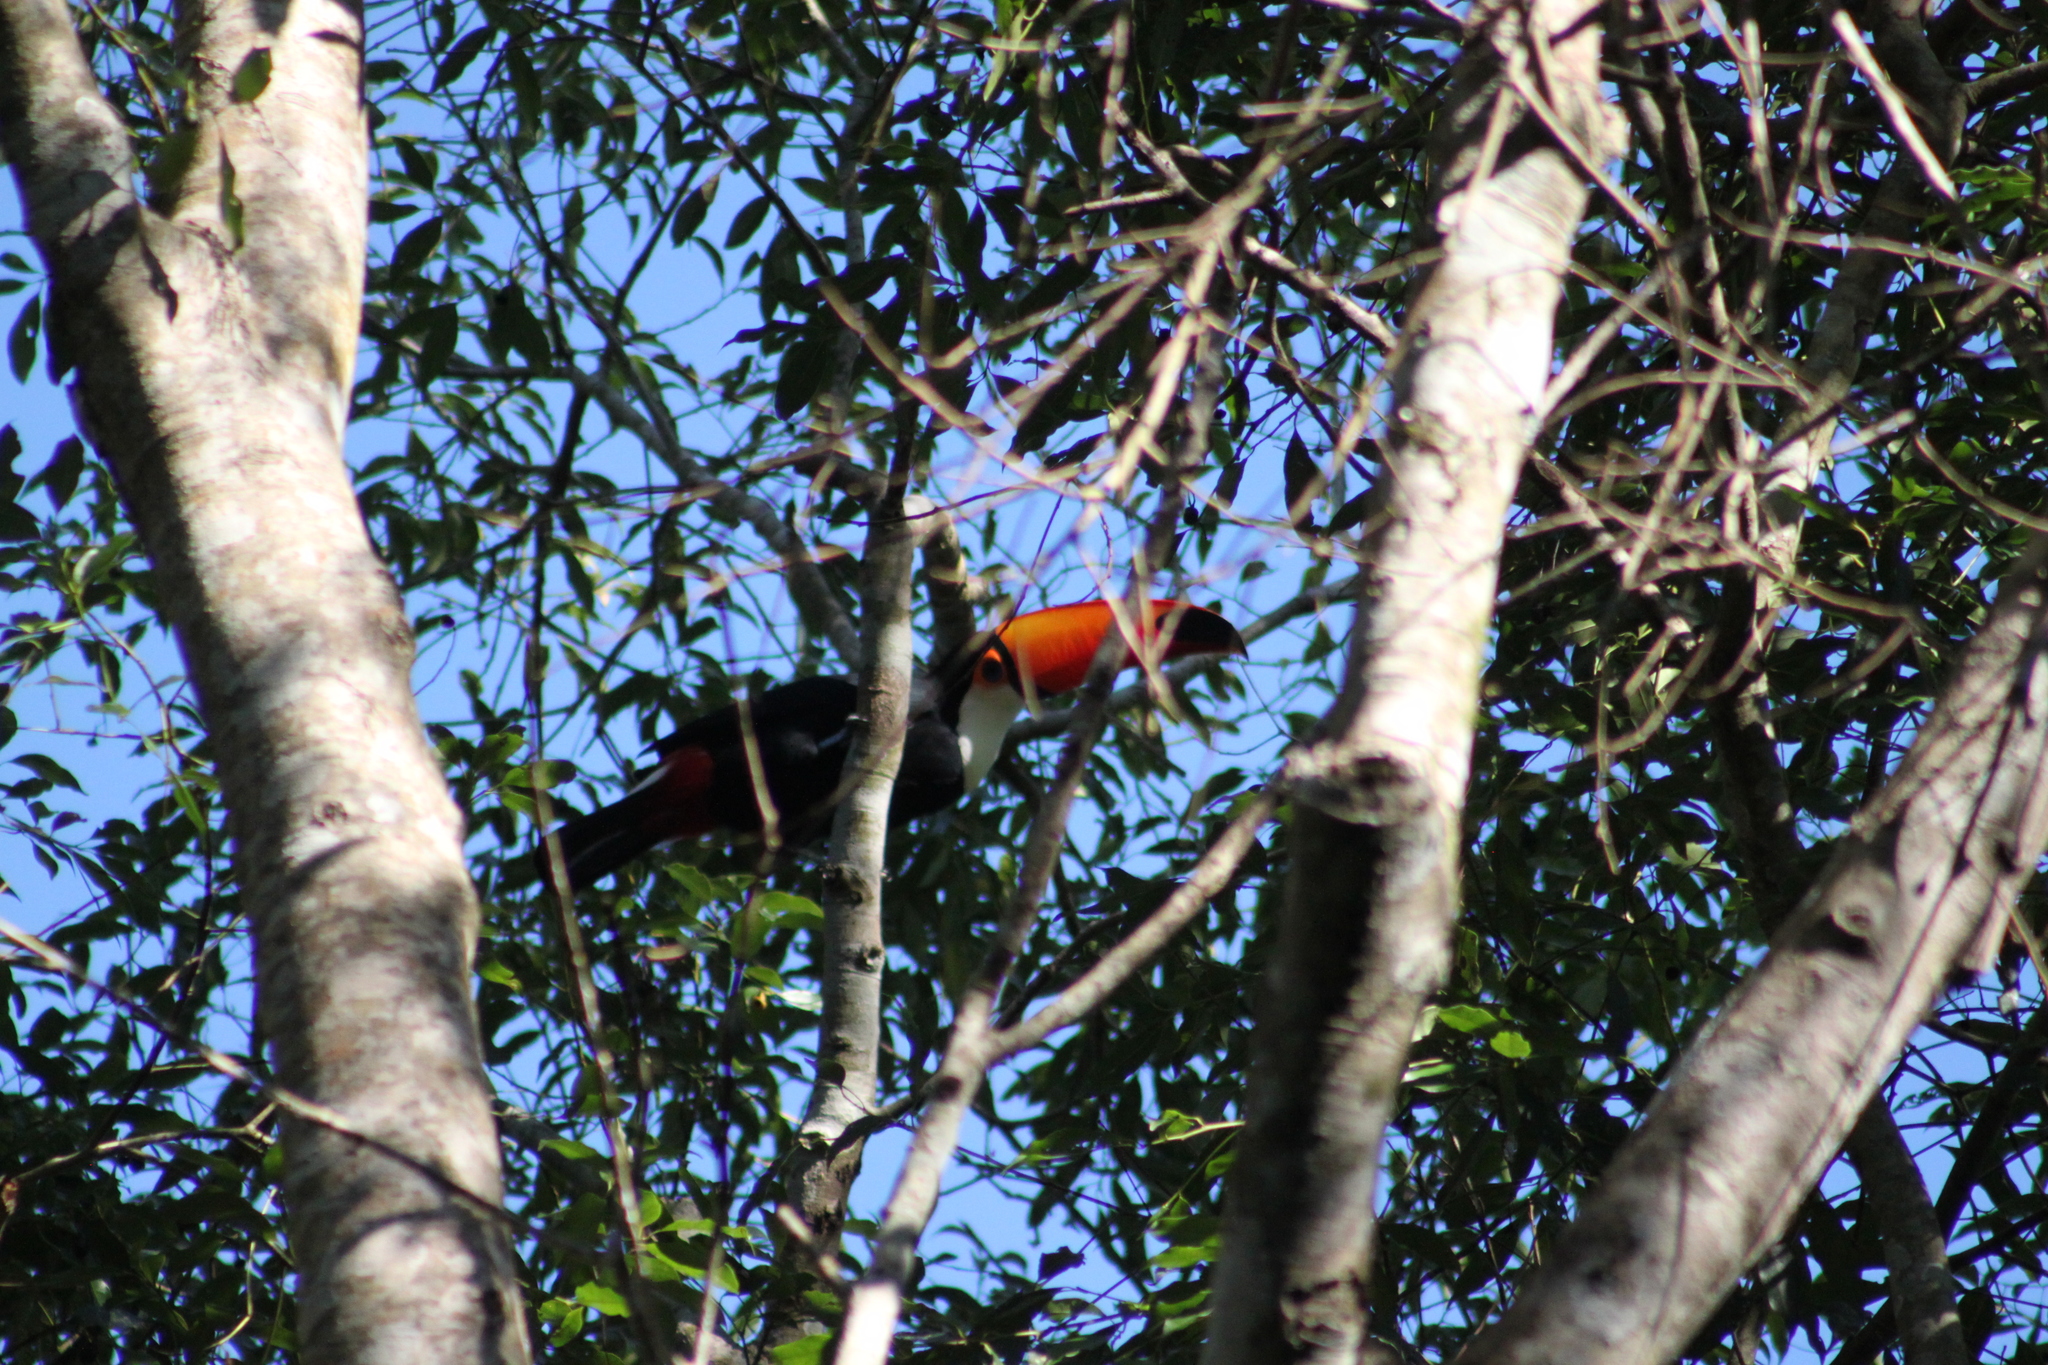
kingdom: Animalia
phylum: Chordata
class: Aves
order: Piciformes
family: Ramphastidae
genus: Ramphastos
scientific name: Ramphastos toco
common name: Toco toucan
